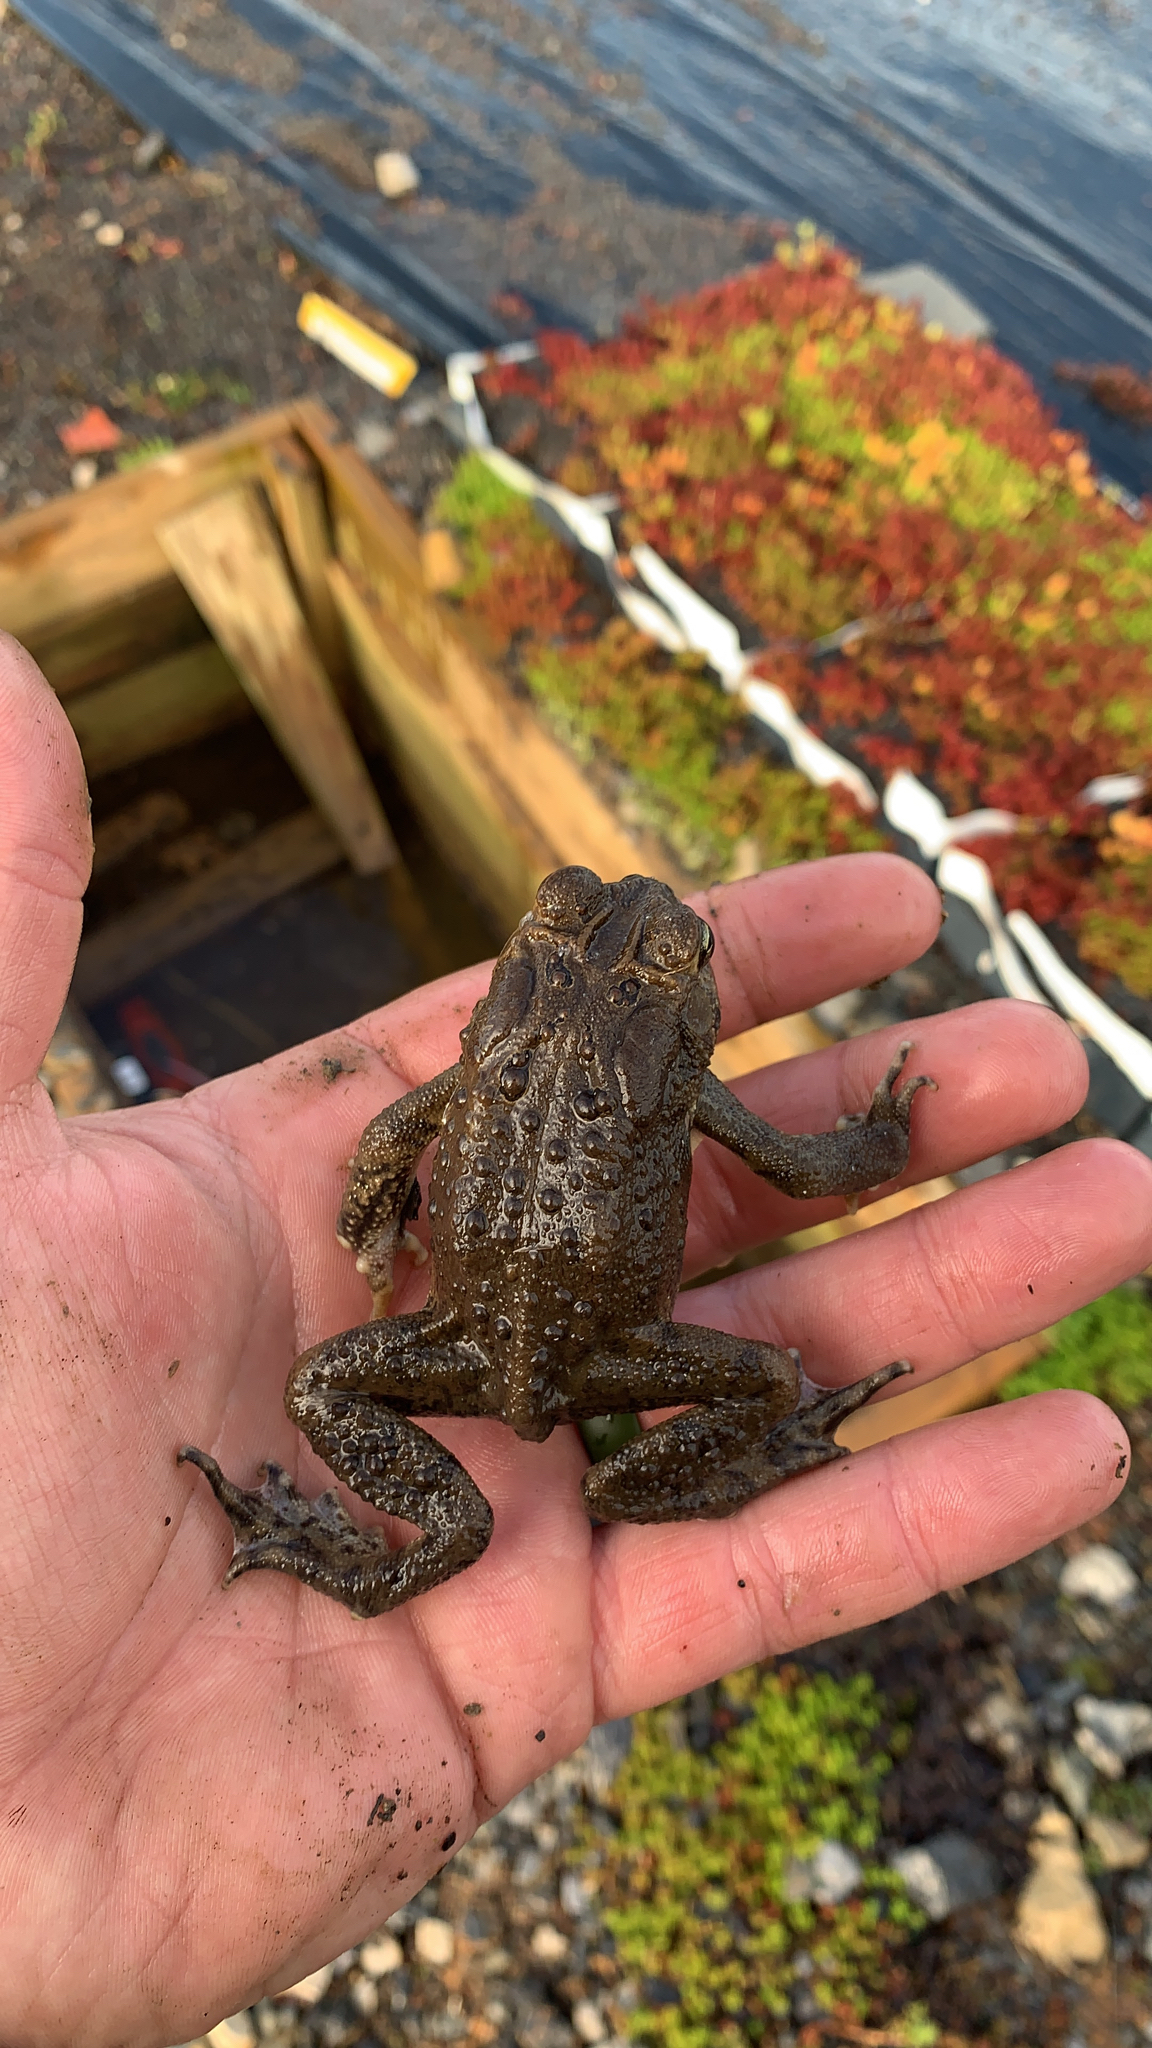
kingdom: Animalia
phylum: Chordata
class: Amphibia
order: Anura
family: Bufonidae
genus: Anaxyrus
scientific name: Anaxyrus americanus
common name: American toad
